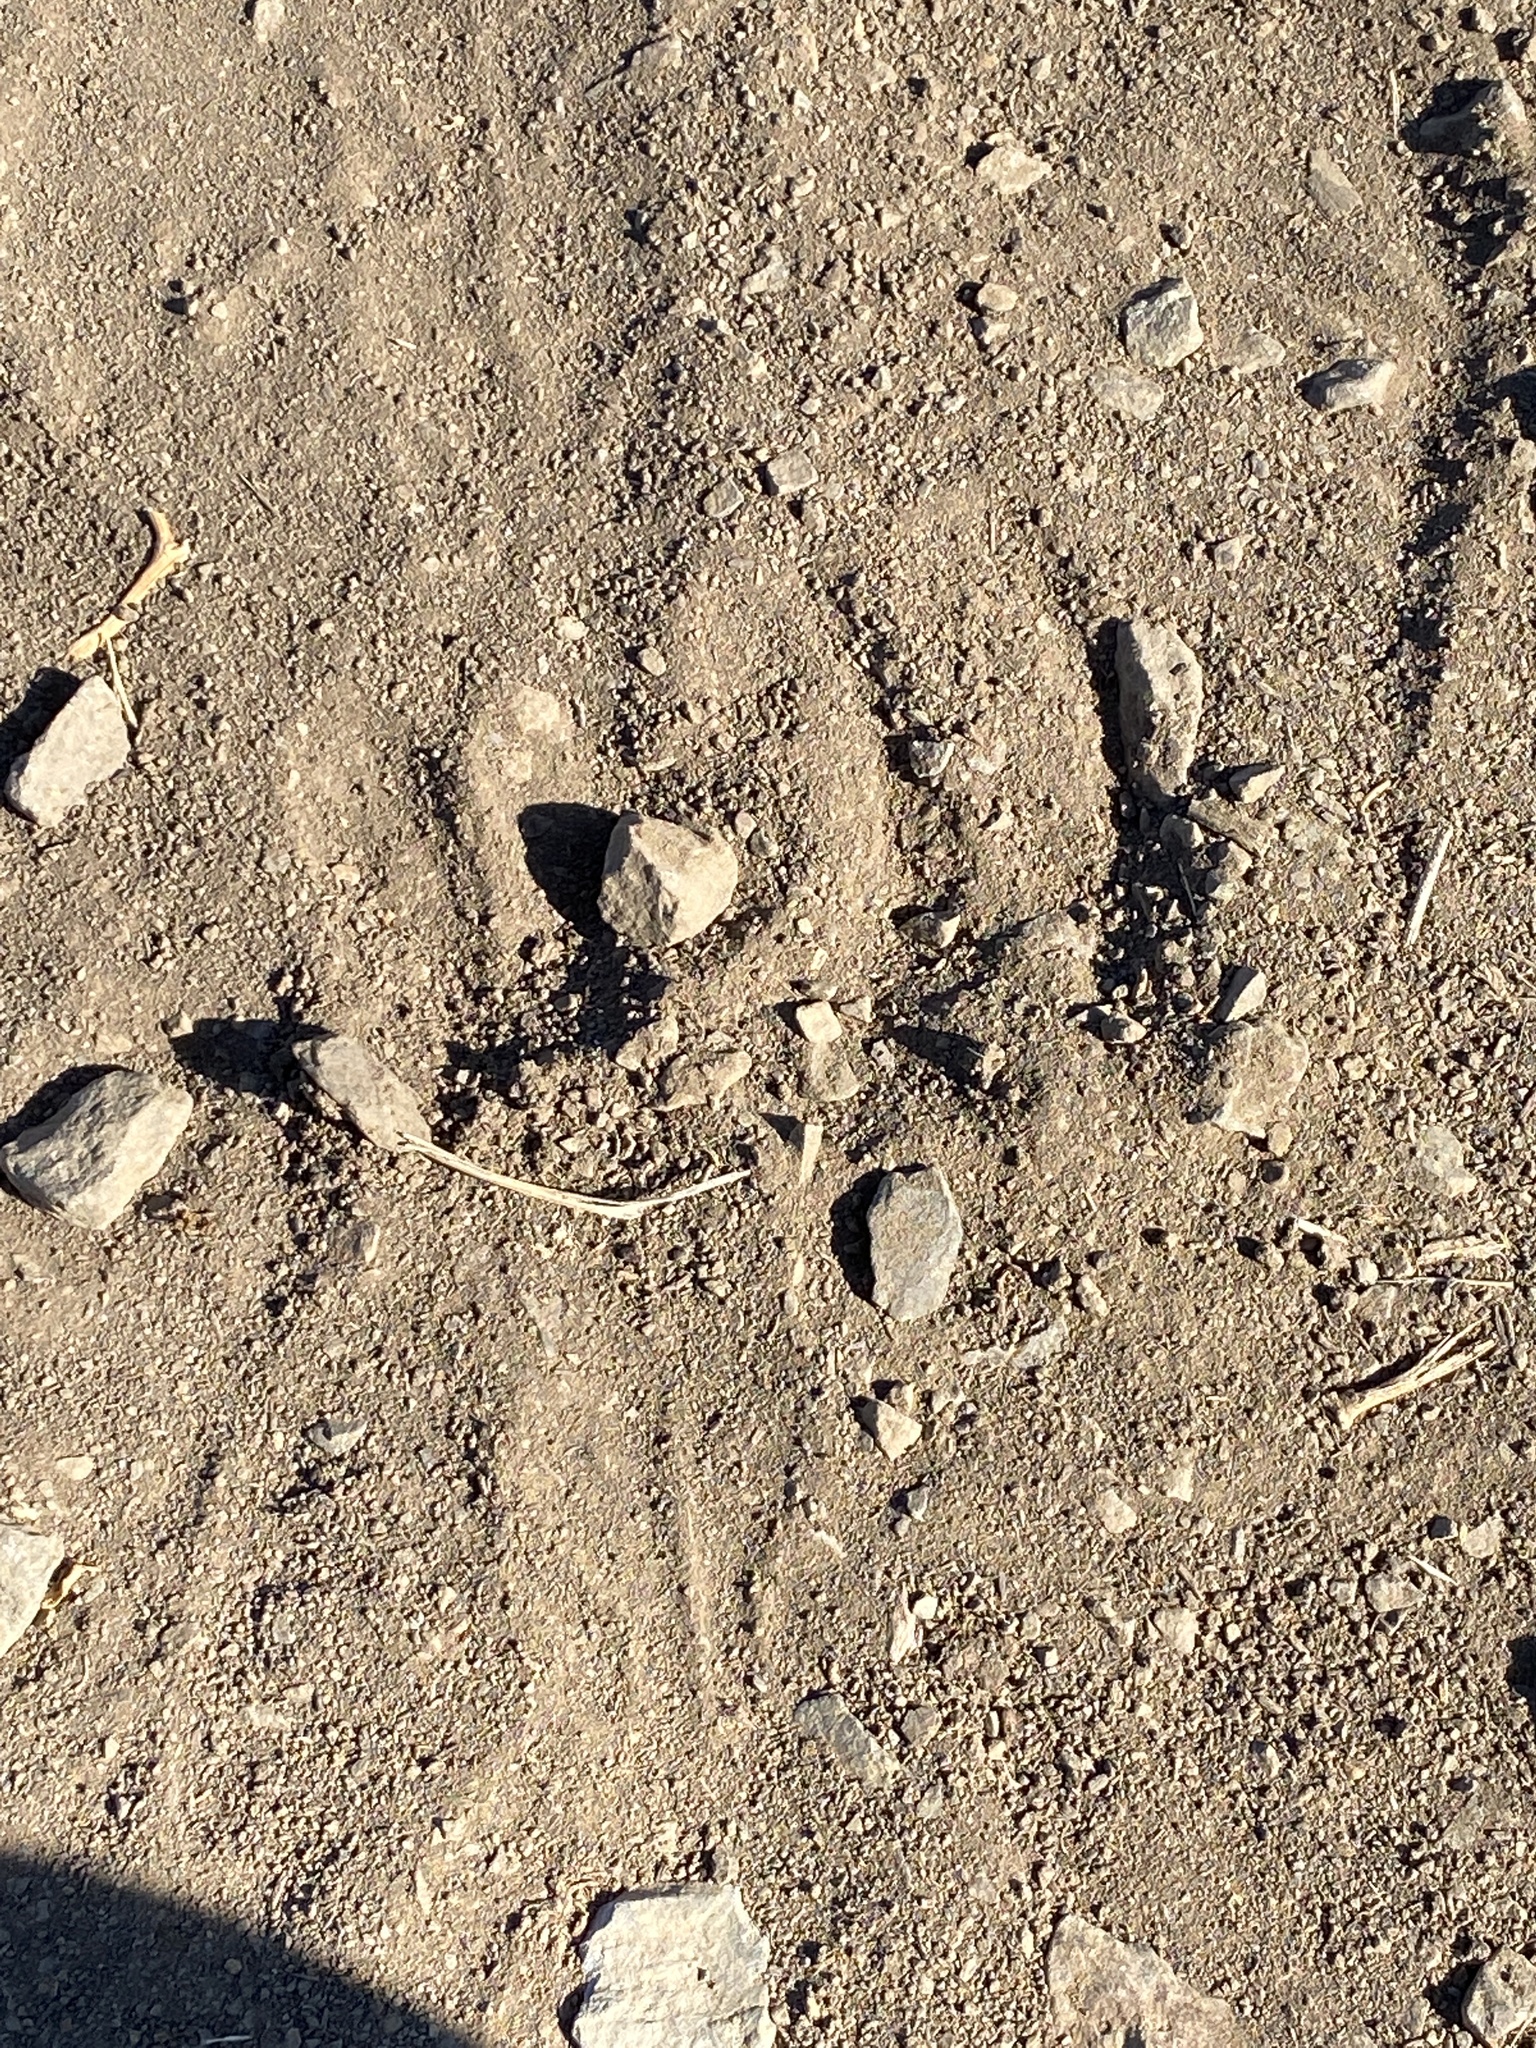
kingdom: Animalia
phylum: Chordata
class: Mammalia
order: Artiodactyla
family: Cervidae
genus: Odocoileus
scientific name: Odocoileus hemionus
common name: Mule deer
